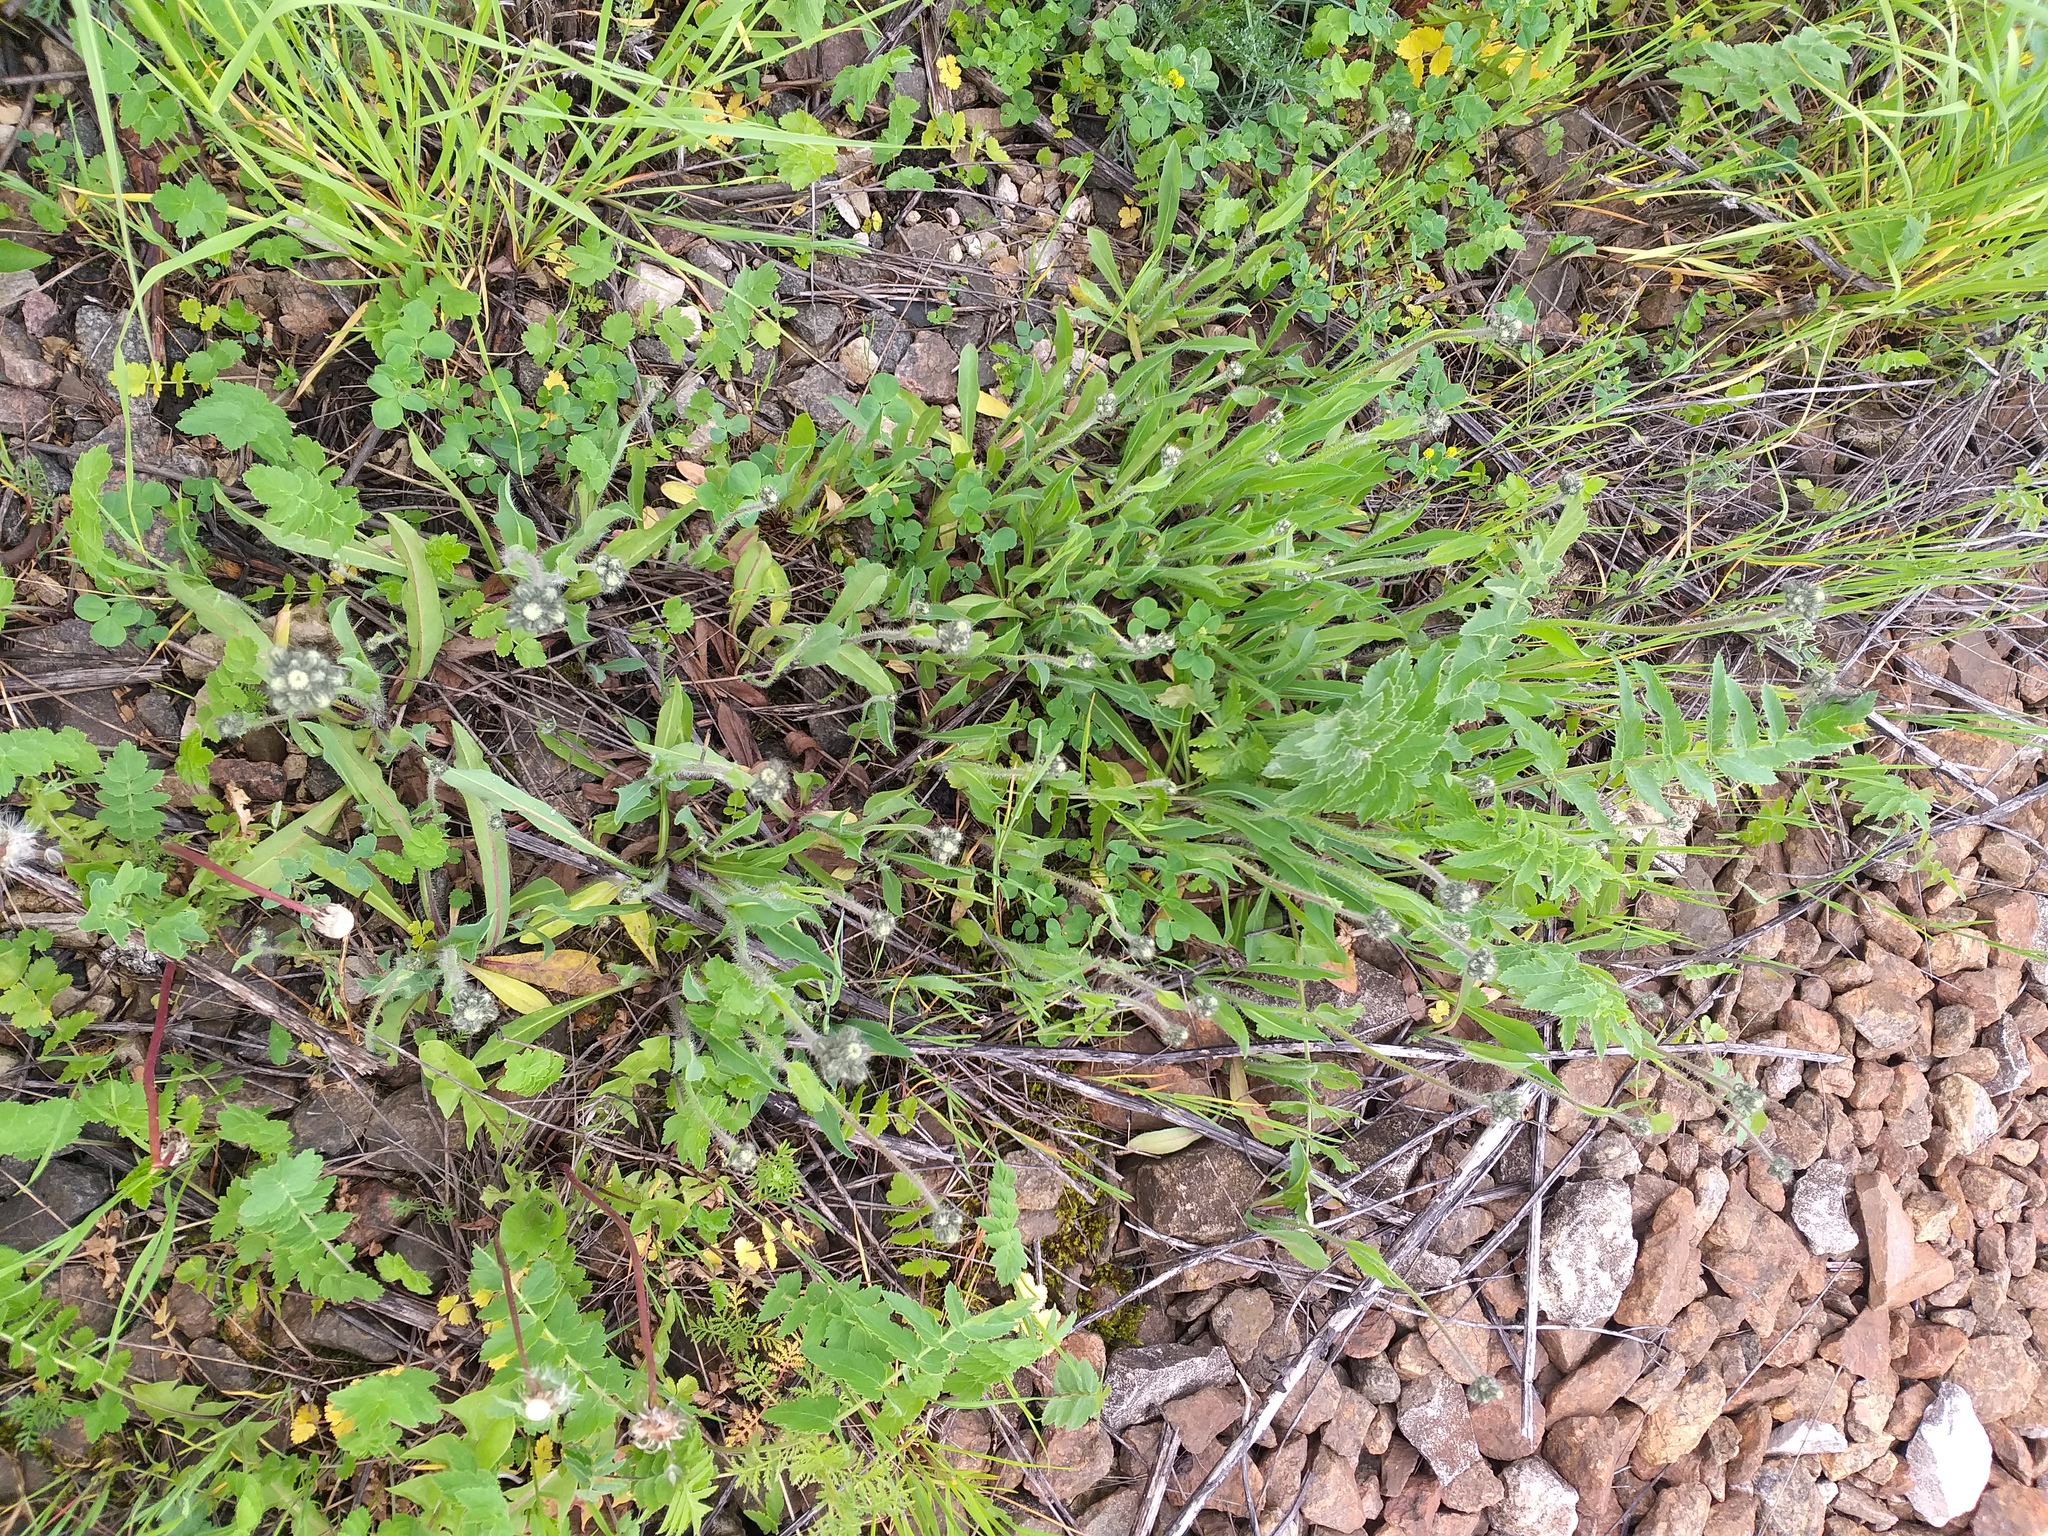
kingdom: Plantae
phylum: Tracheophyta
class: Magnoliopsida
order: Asterales
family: Asteraceae
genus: Pilosella
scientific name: Pilosella
